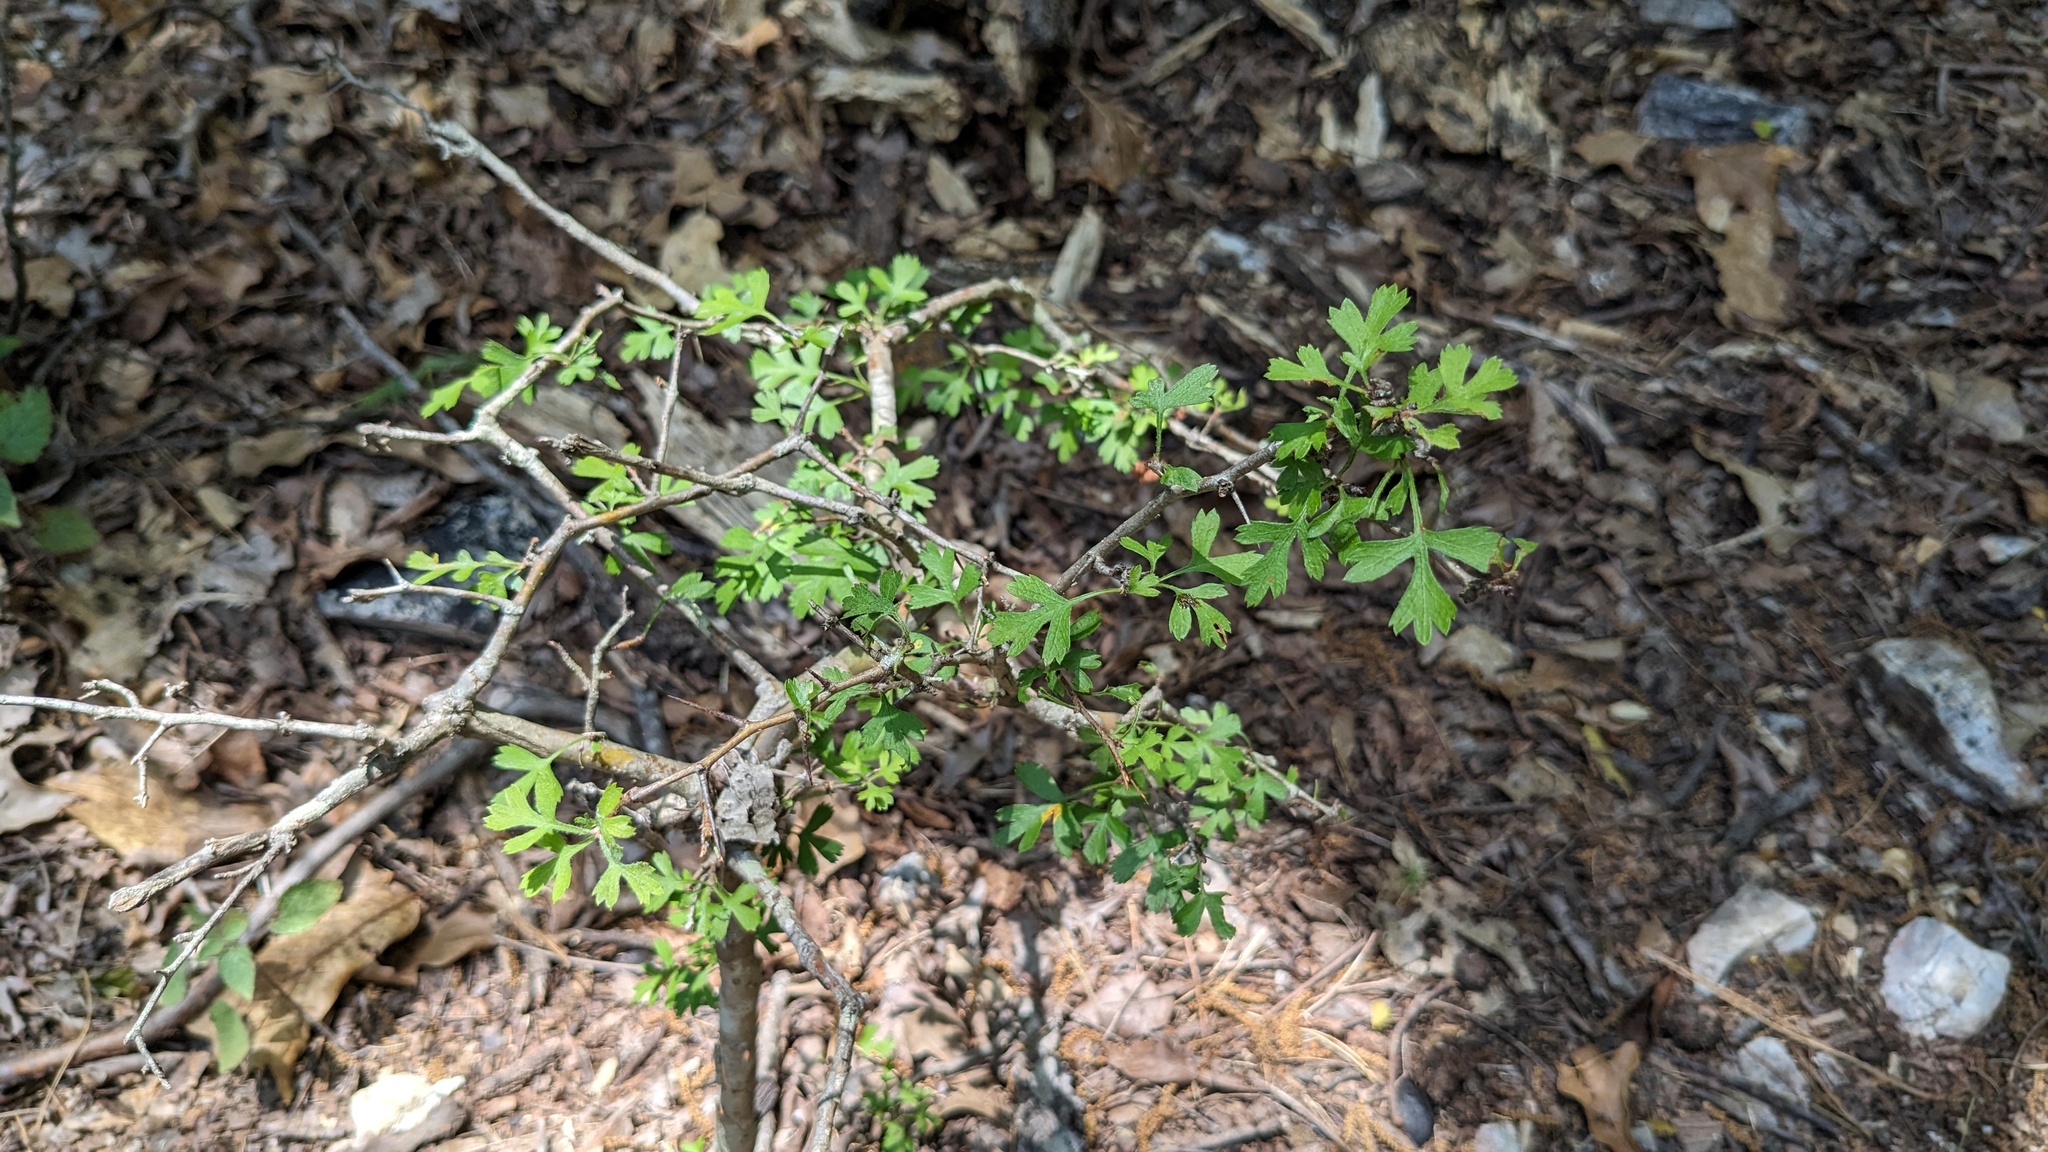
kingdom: Plantae
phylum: Tracheophyta
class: Magnoliopsida
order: Rosales
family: Rosaceae
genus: Crataegus
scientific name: Crataegus marshallii
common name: Parsley-hawthorn
